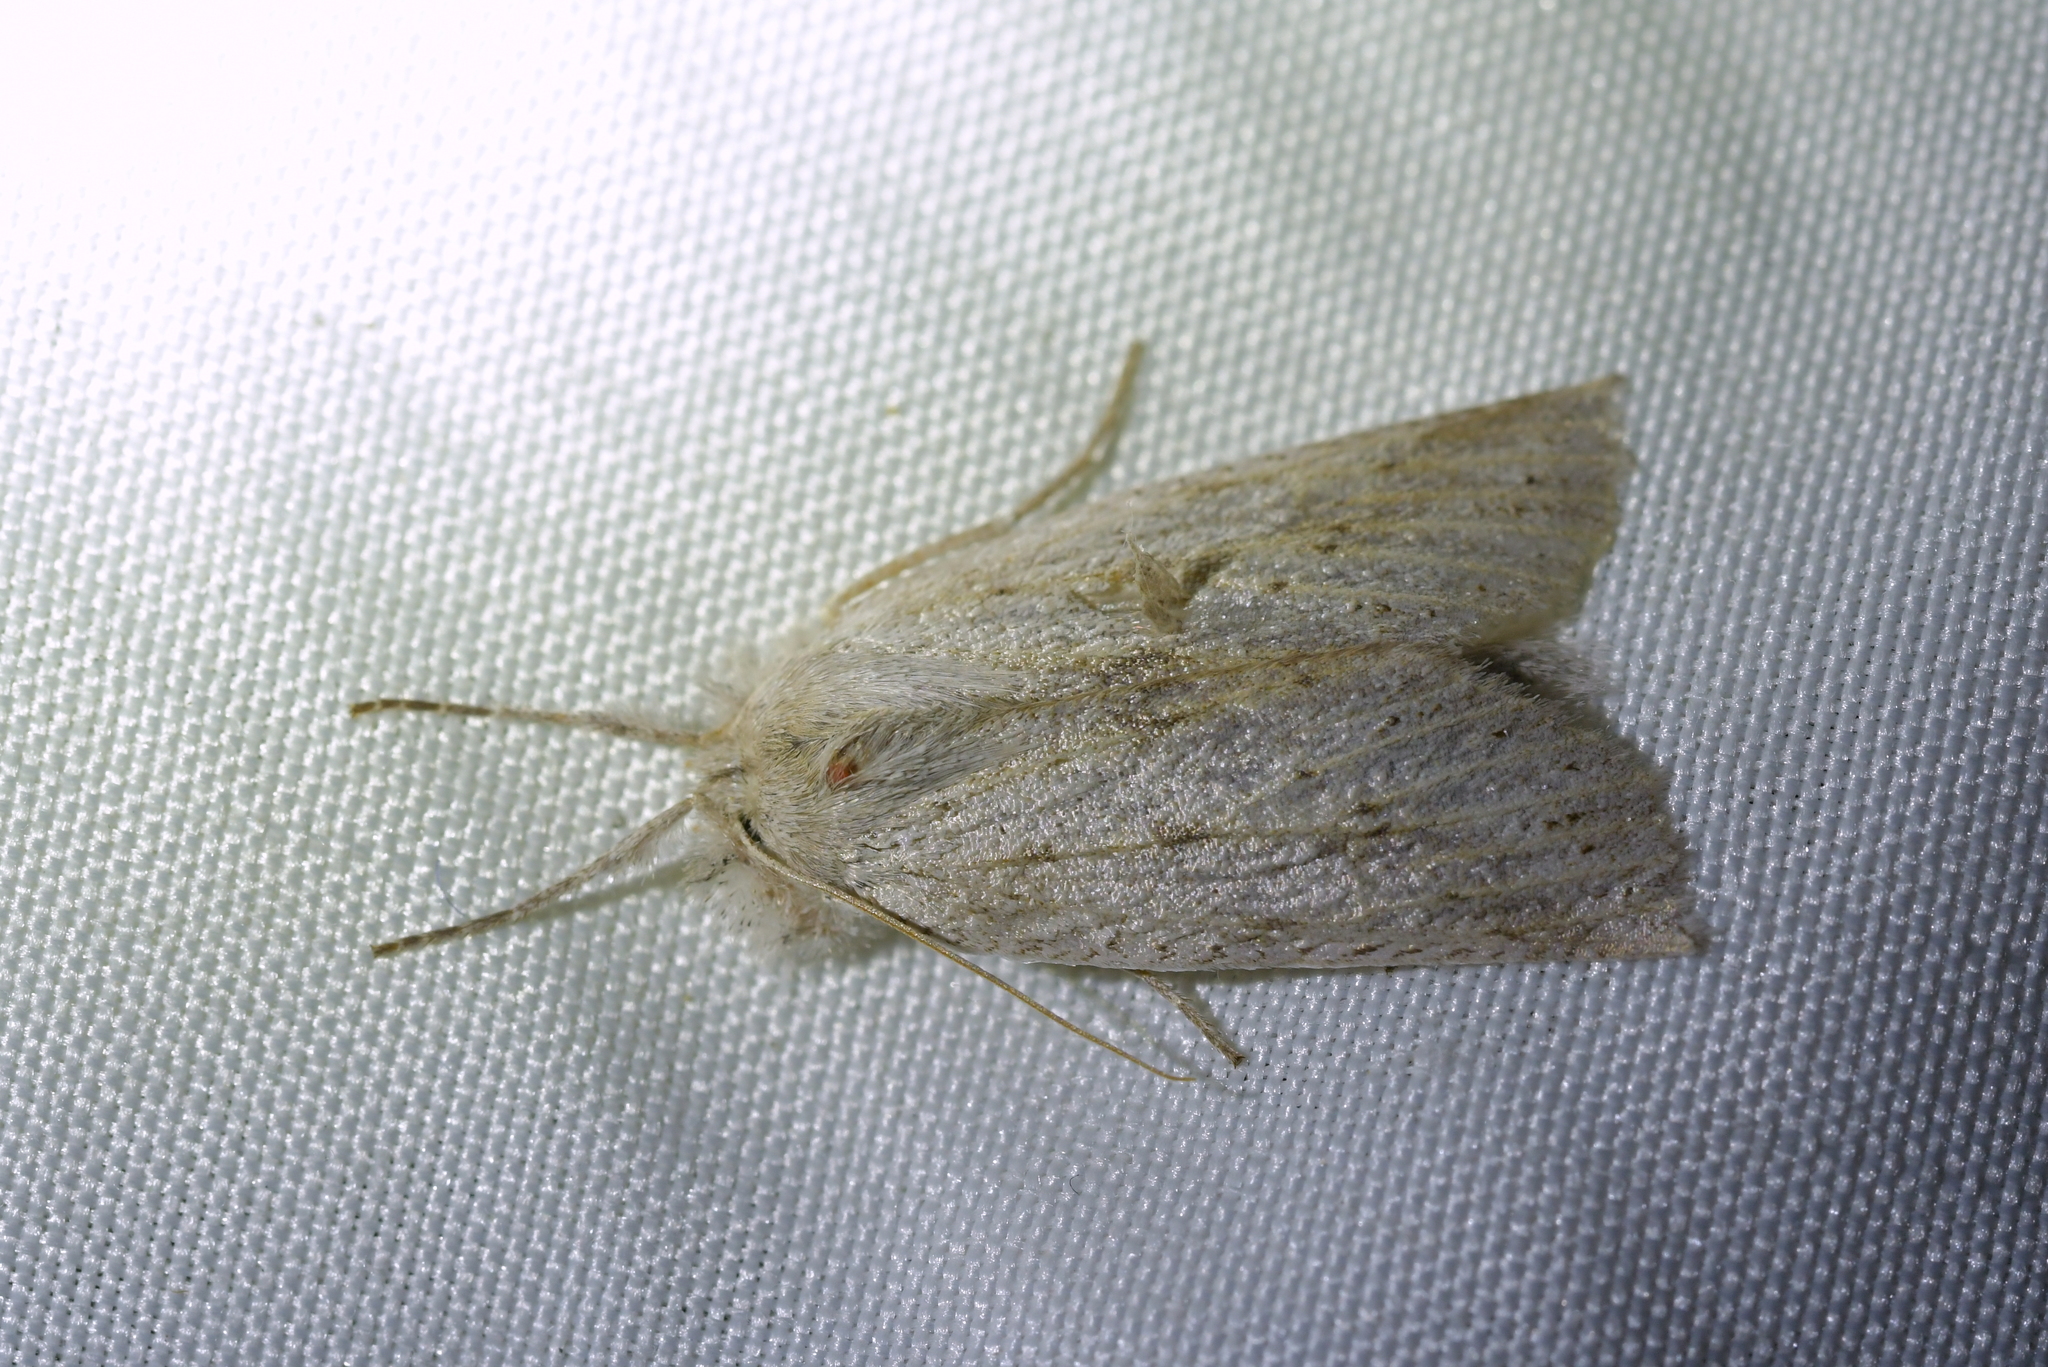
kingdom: Animalia
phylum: Arthropoda
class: Insecta
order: Lepidoptera
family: Geometridae
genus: Declana
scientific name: Declana leptomera
